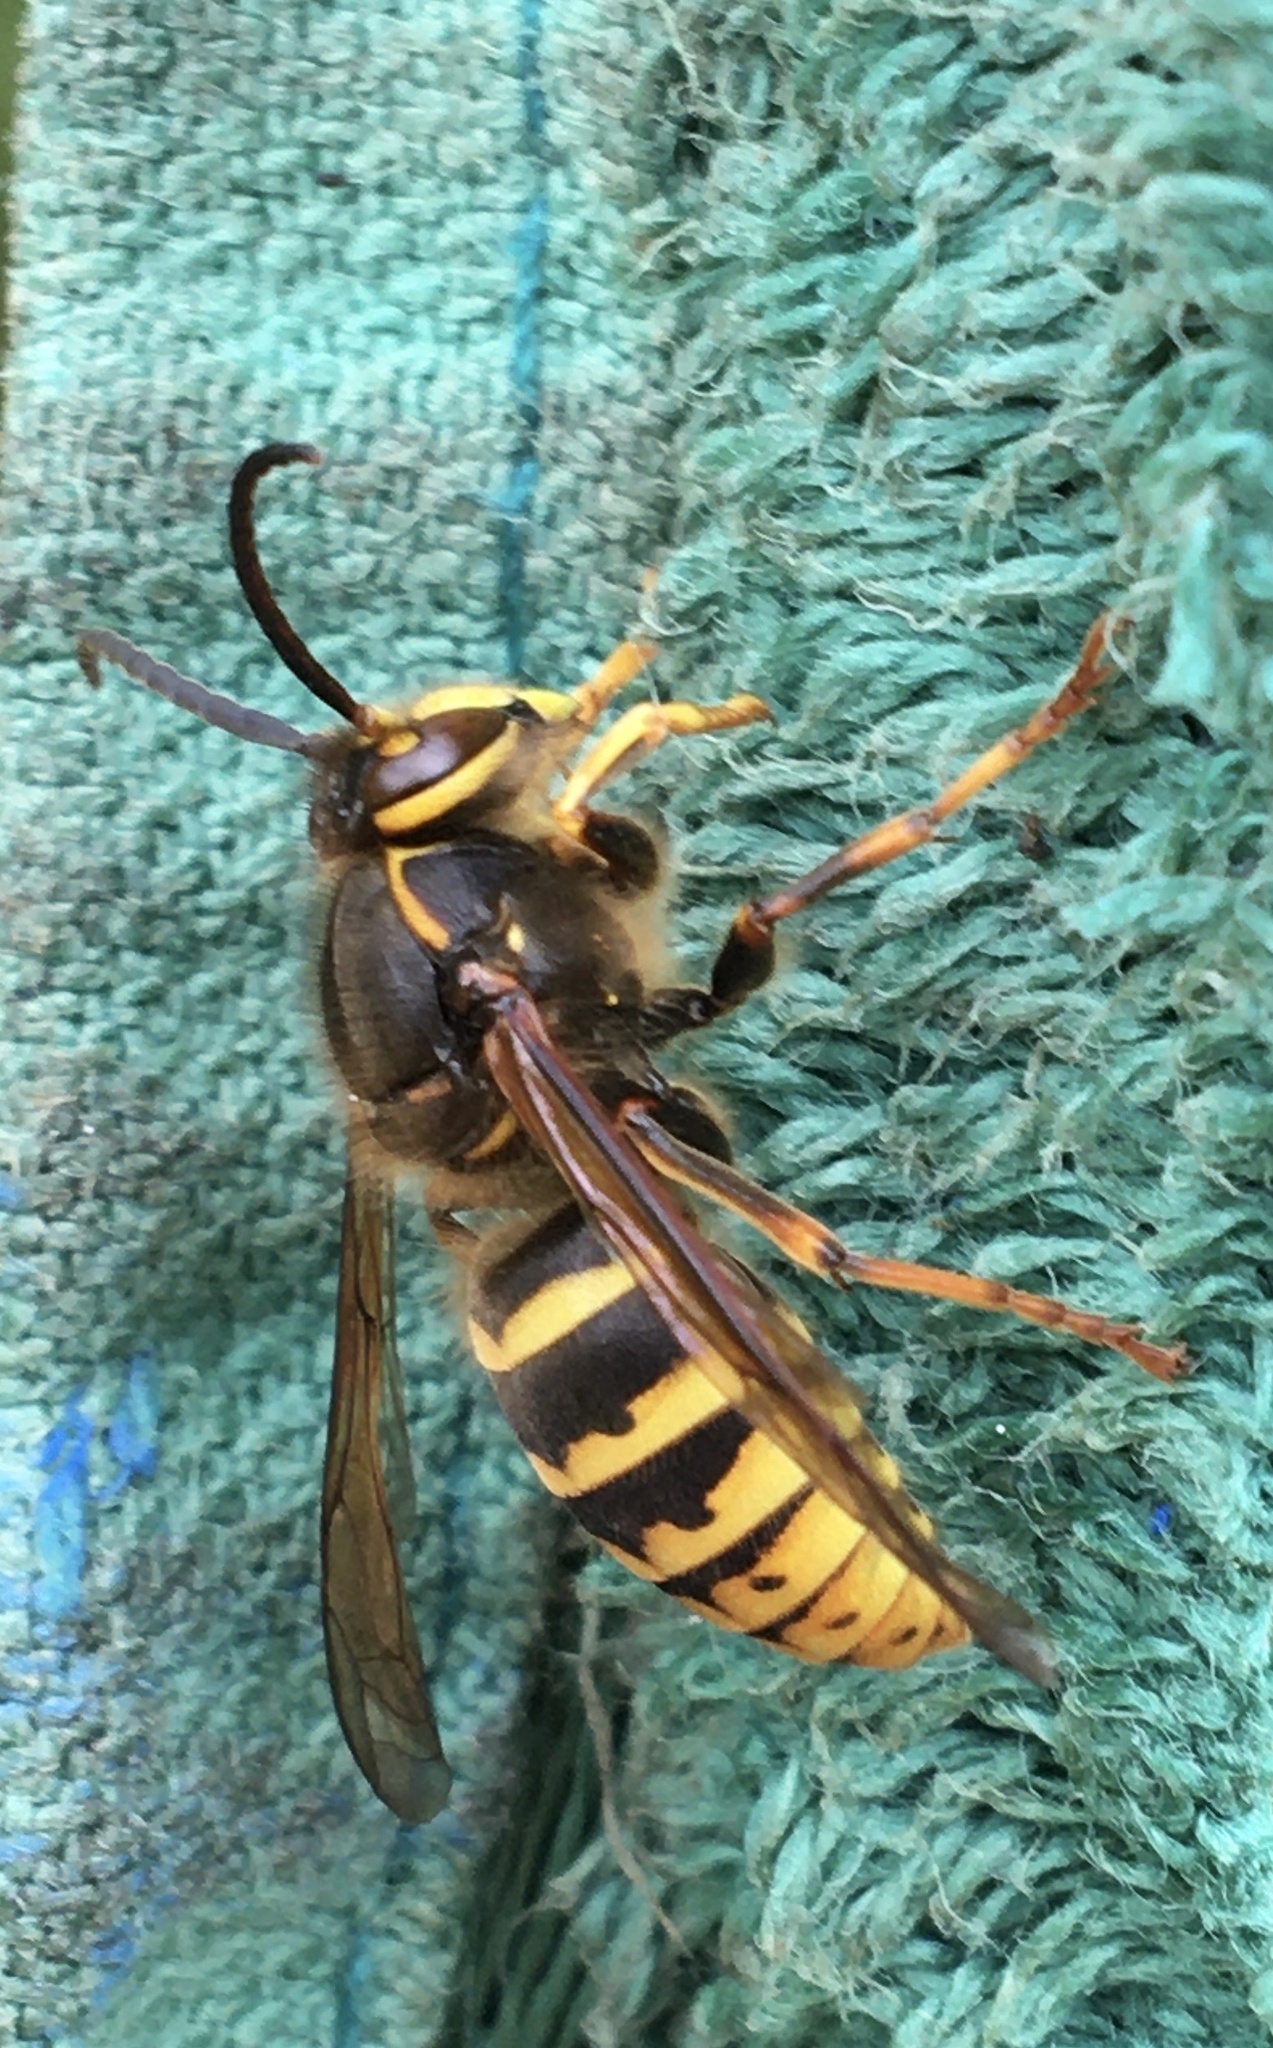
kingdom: Animalia
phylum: Arthropoda
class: Insecta
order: Hymenoptera
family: Vespidae
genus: Dolichovespula
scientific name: Dolichovespula media
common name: Median wasp
